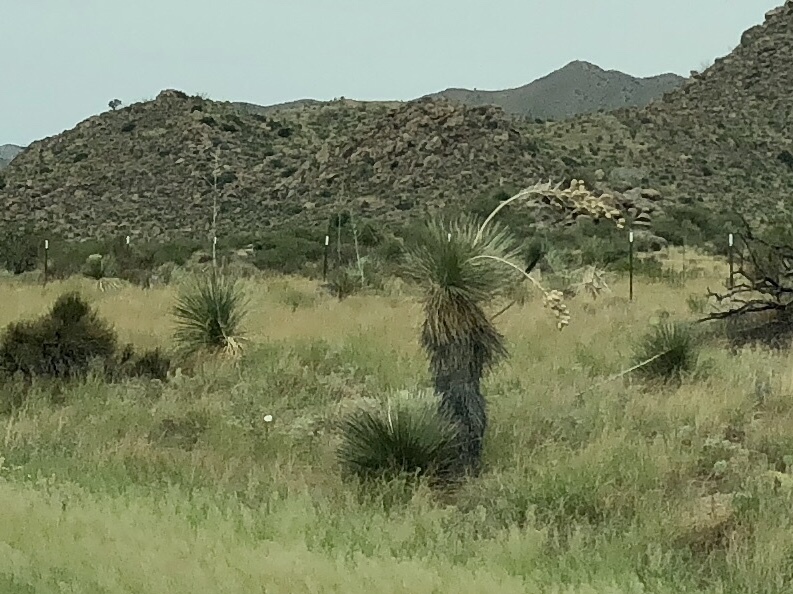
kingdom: Plantae
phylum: Tracheophyta
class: Liliopsida
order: Asparagales
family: Asparagaceae
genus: Yucca
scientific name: Yucca elata
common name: Palmella
